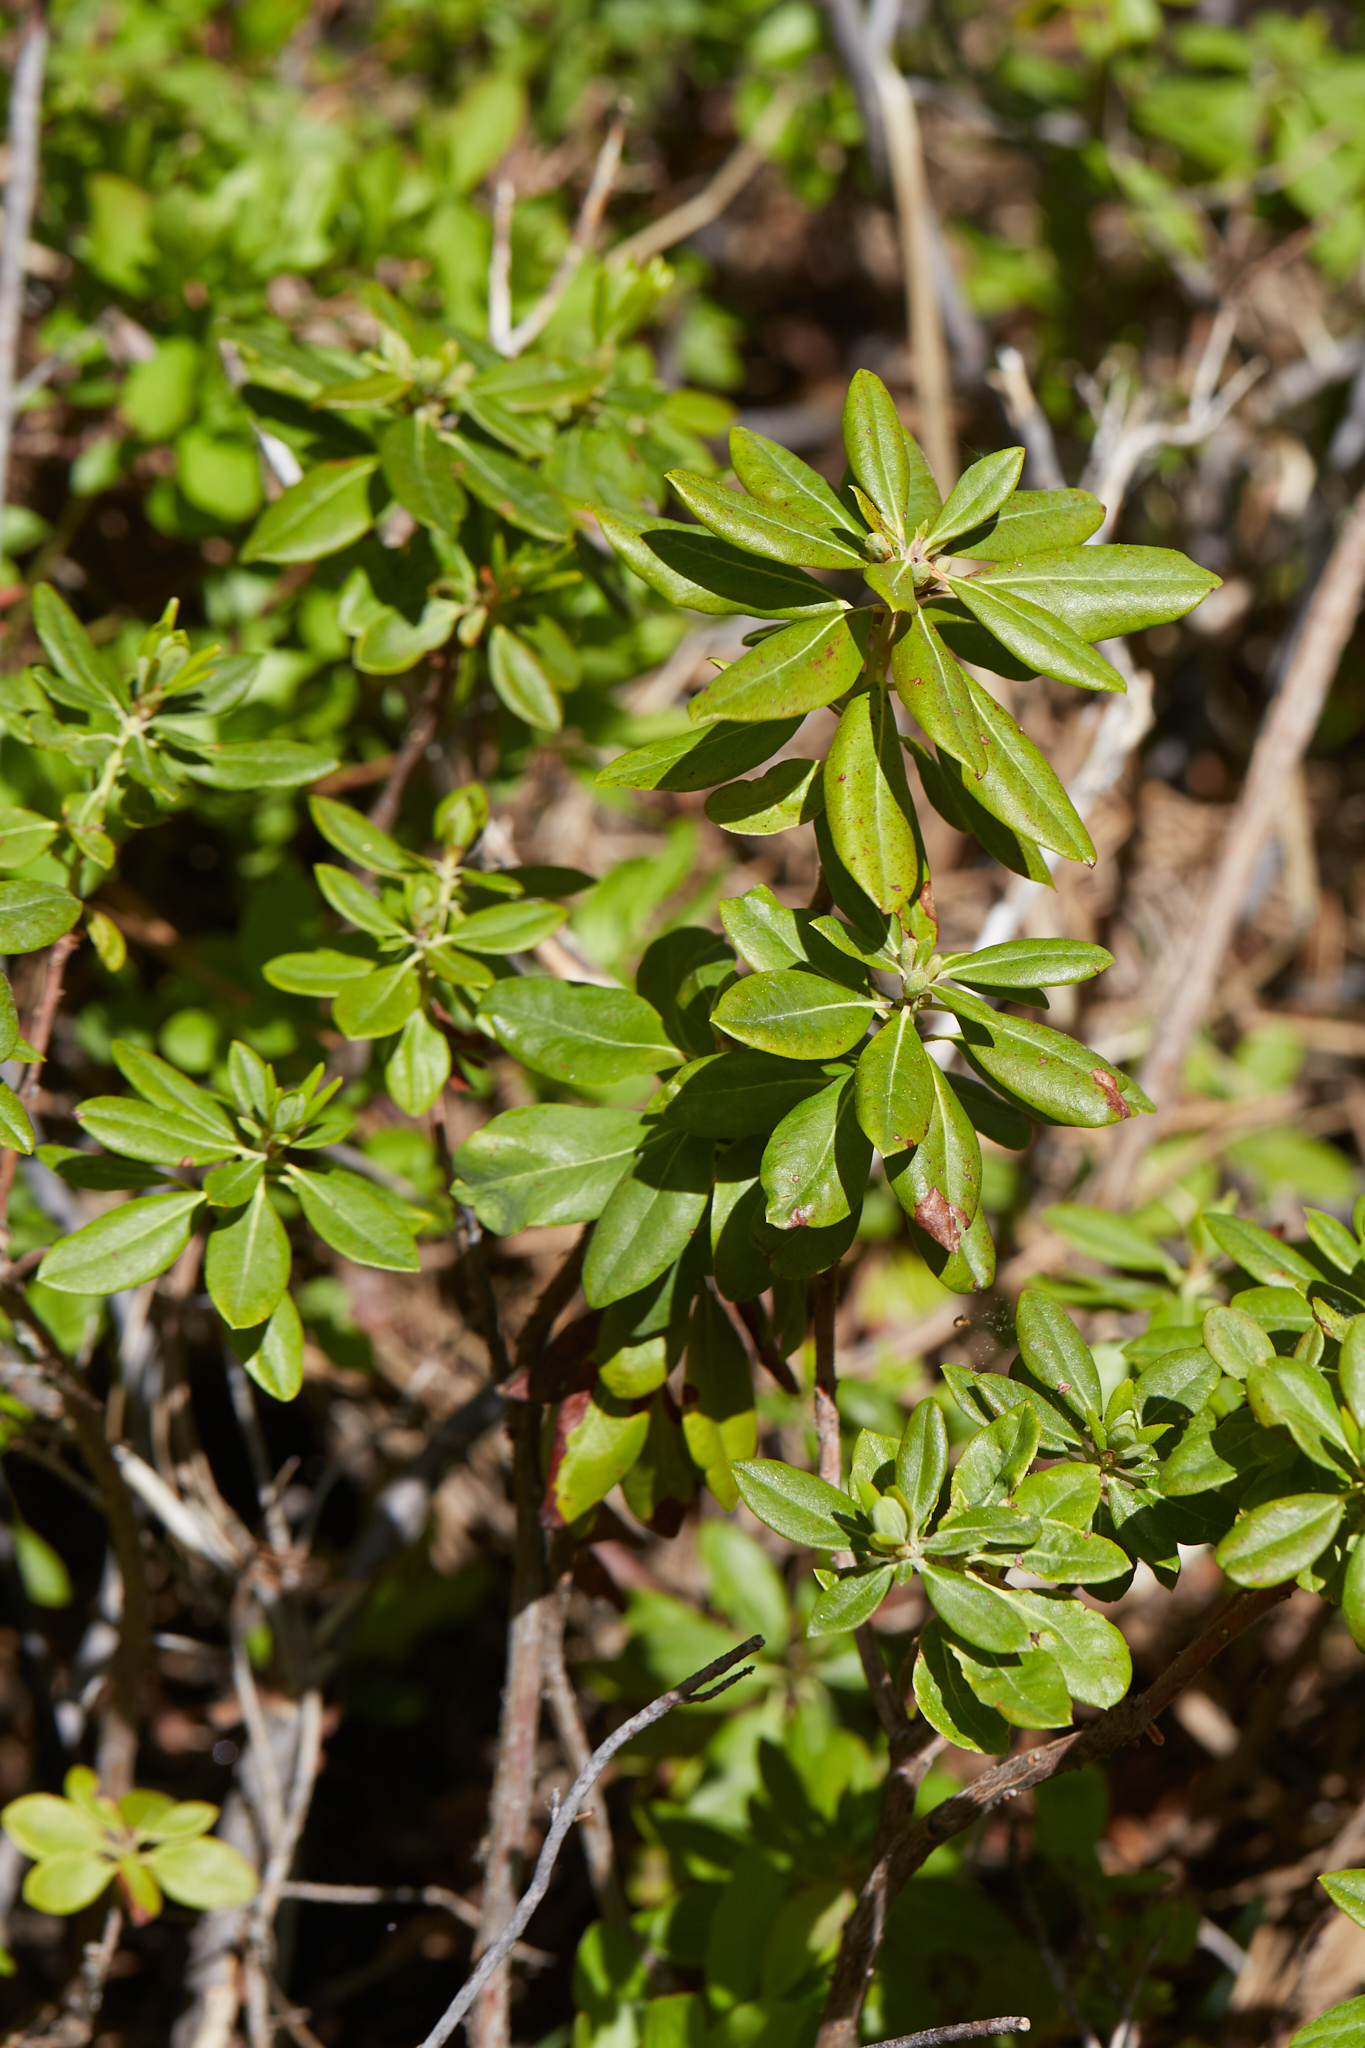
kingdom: Plantae
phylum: Tracheophyta
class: Magnoliopsida
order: Ericales
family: Ericaceae
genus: Rhododendron
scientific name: Rhododendron columbianum
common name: Western labrador tea
